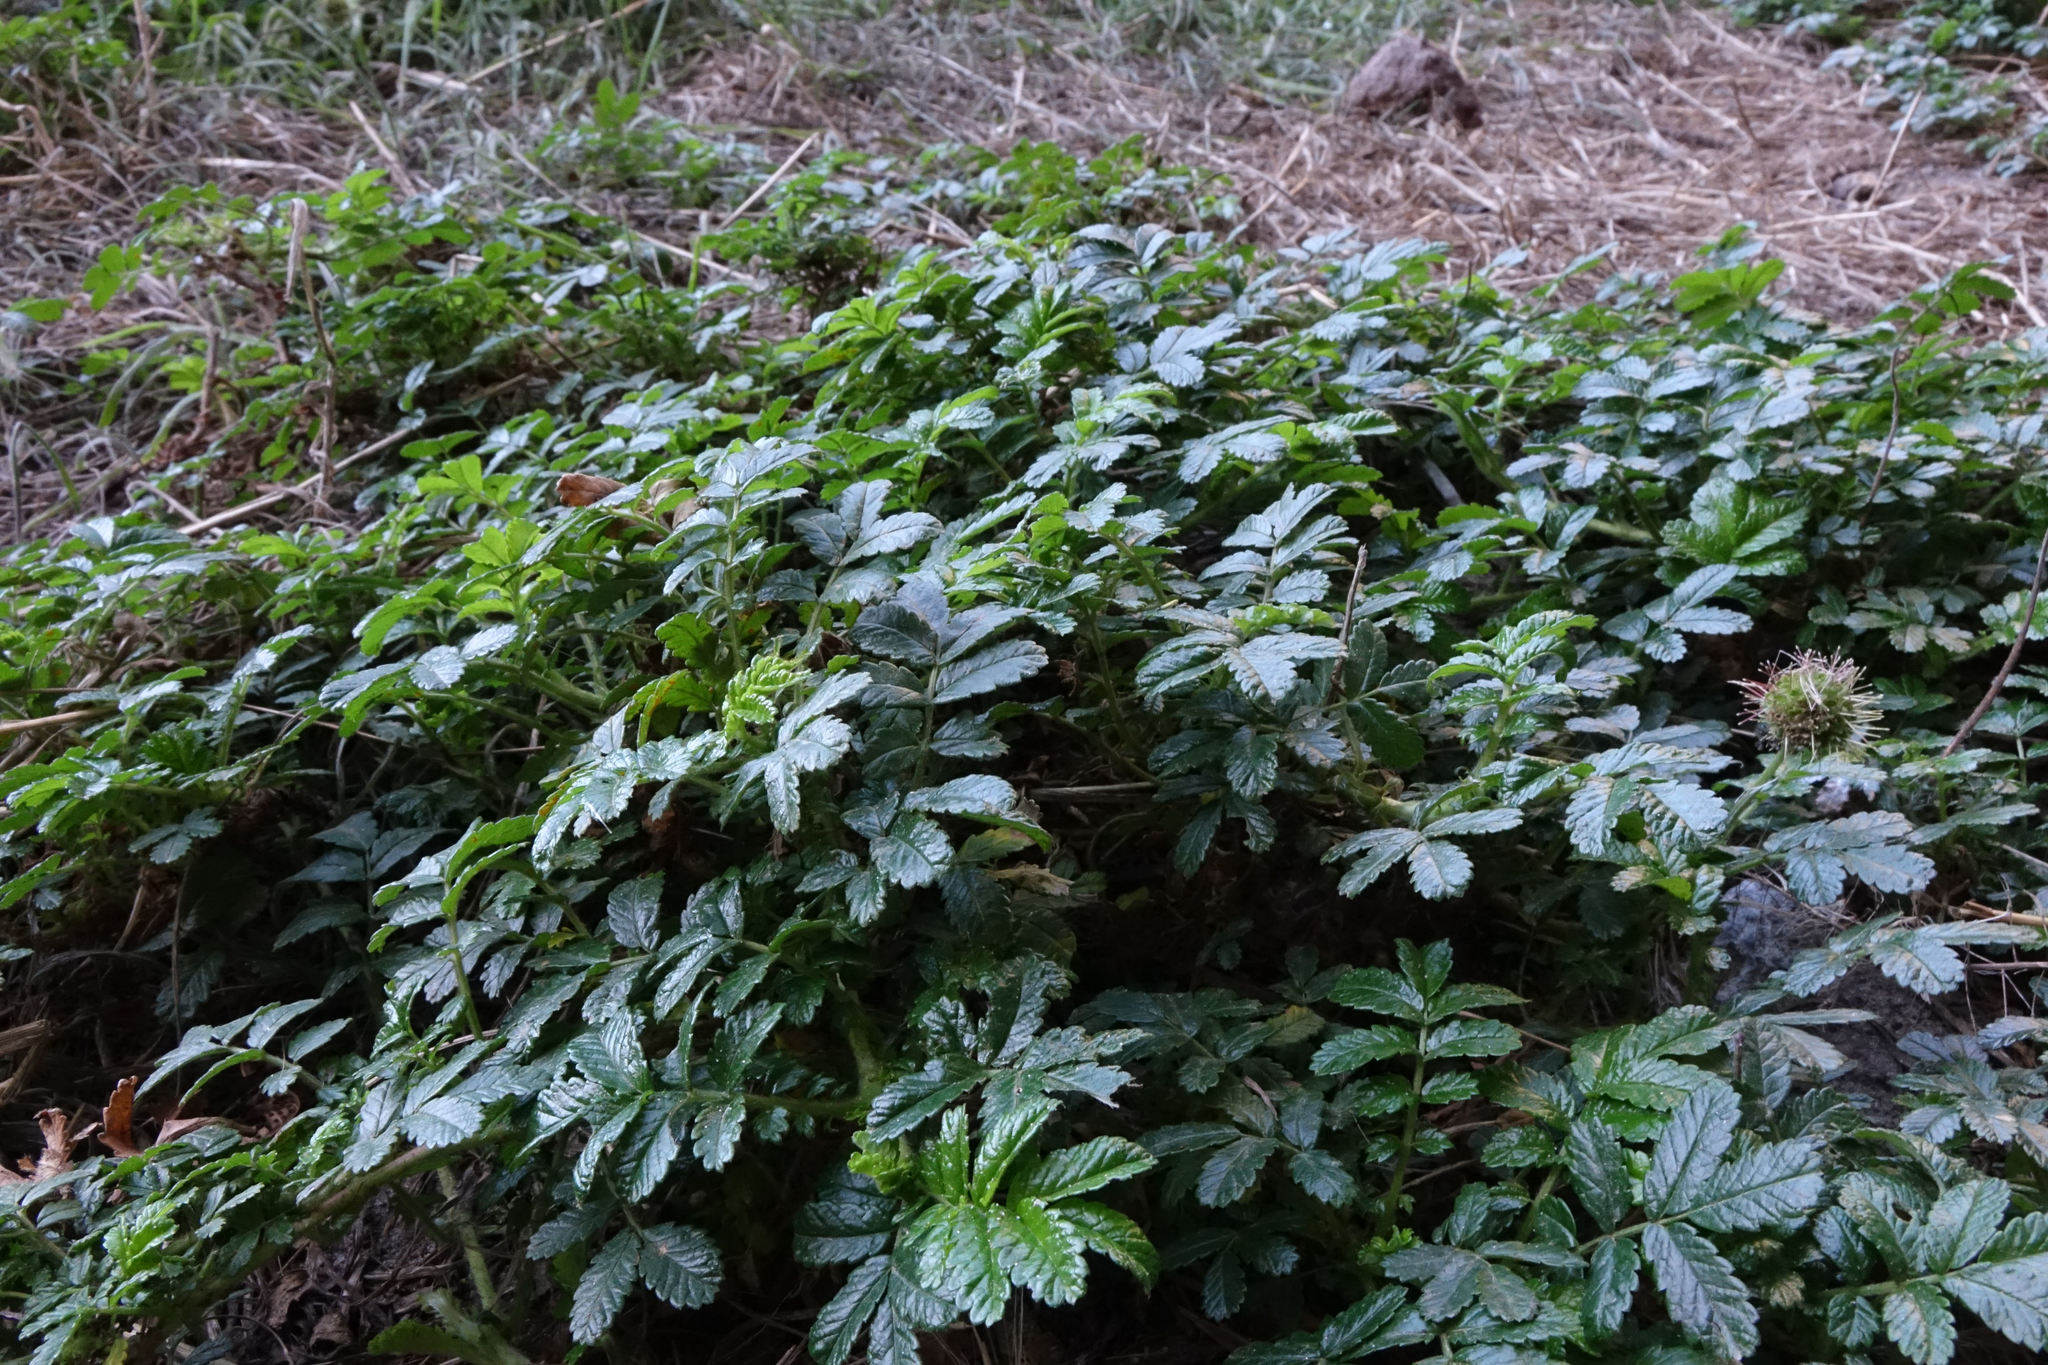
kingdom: Plantae
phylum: Tracheophyta
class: Magnoliopsida
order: Rosales
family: Rosaceae
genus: Acaena
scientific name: Acaena pallida
